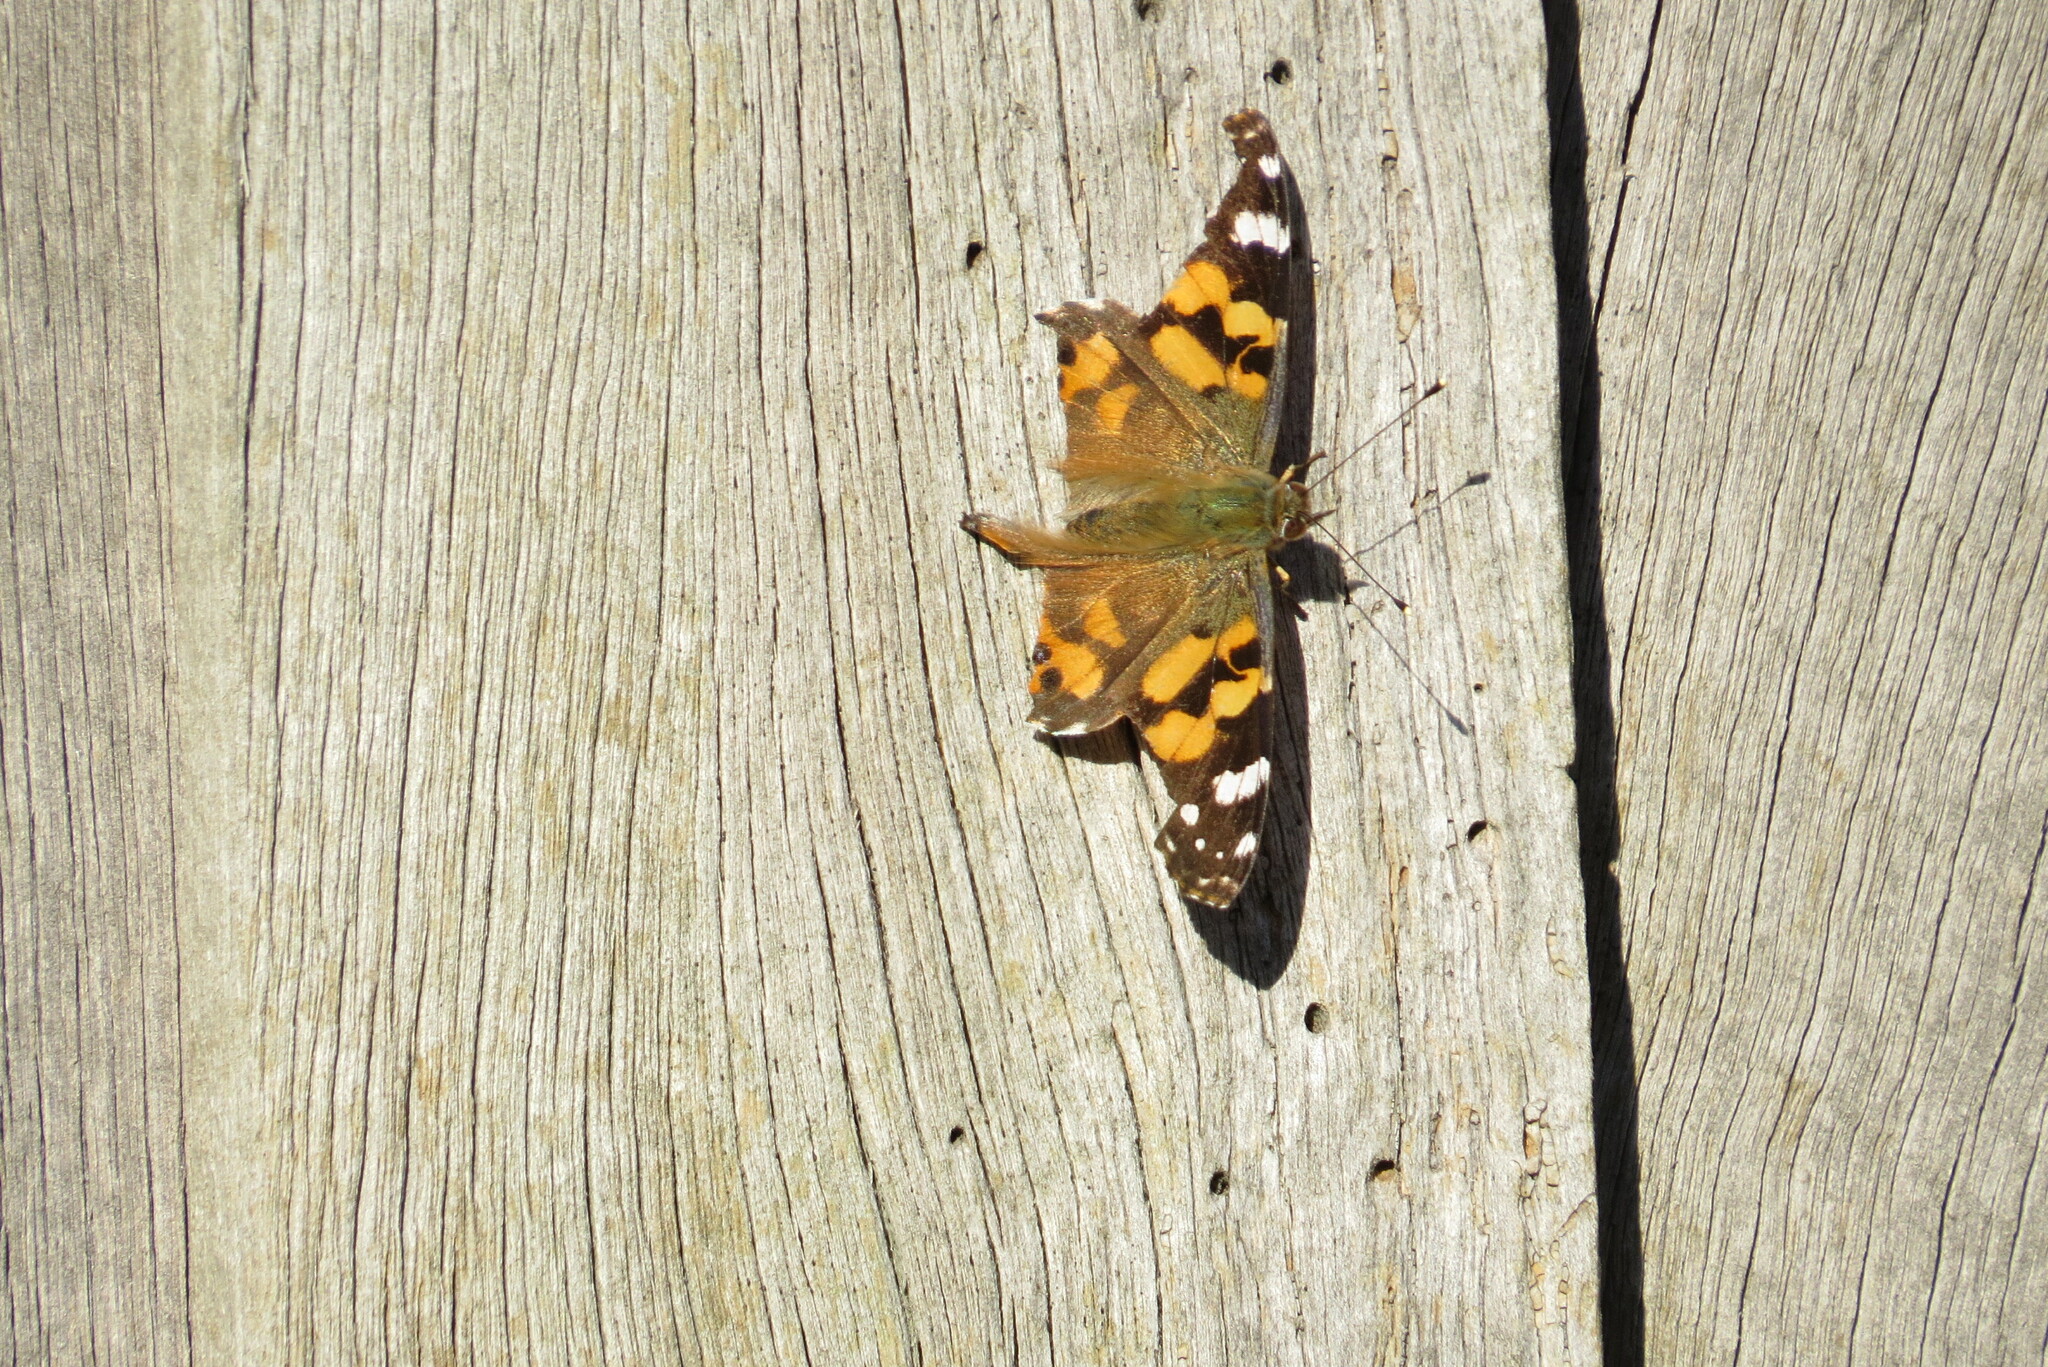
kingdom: Animalia
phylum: Arthropoda
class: Insecta
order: Lepidoptera
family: Nymphalidae
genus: Vanessa
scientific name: Vanessa kershawi
